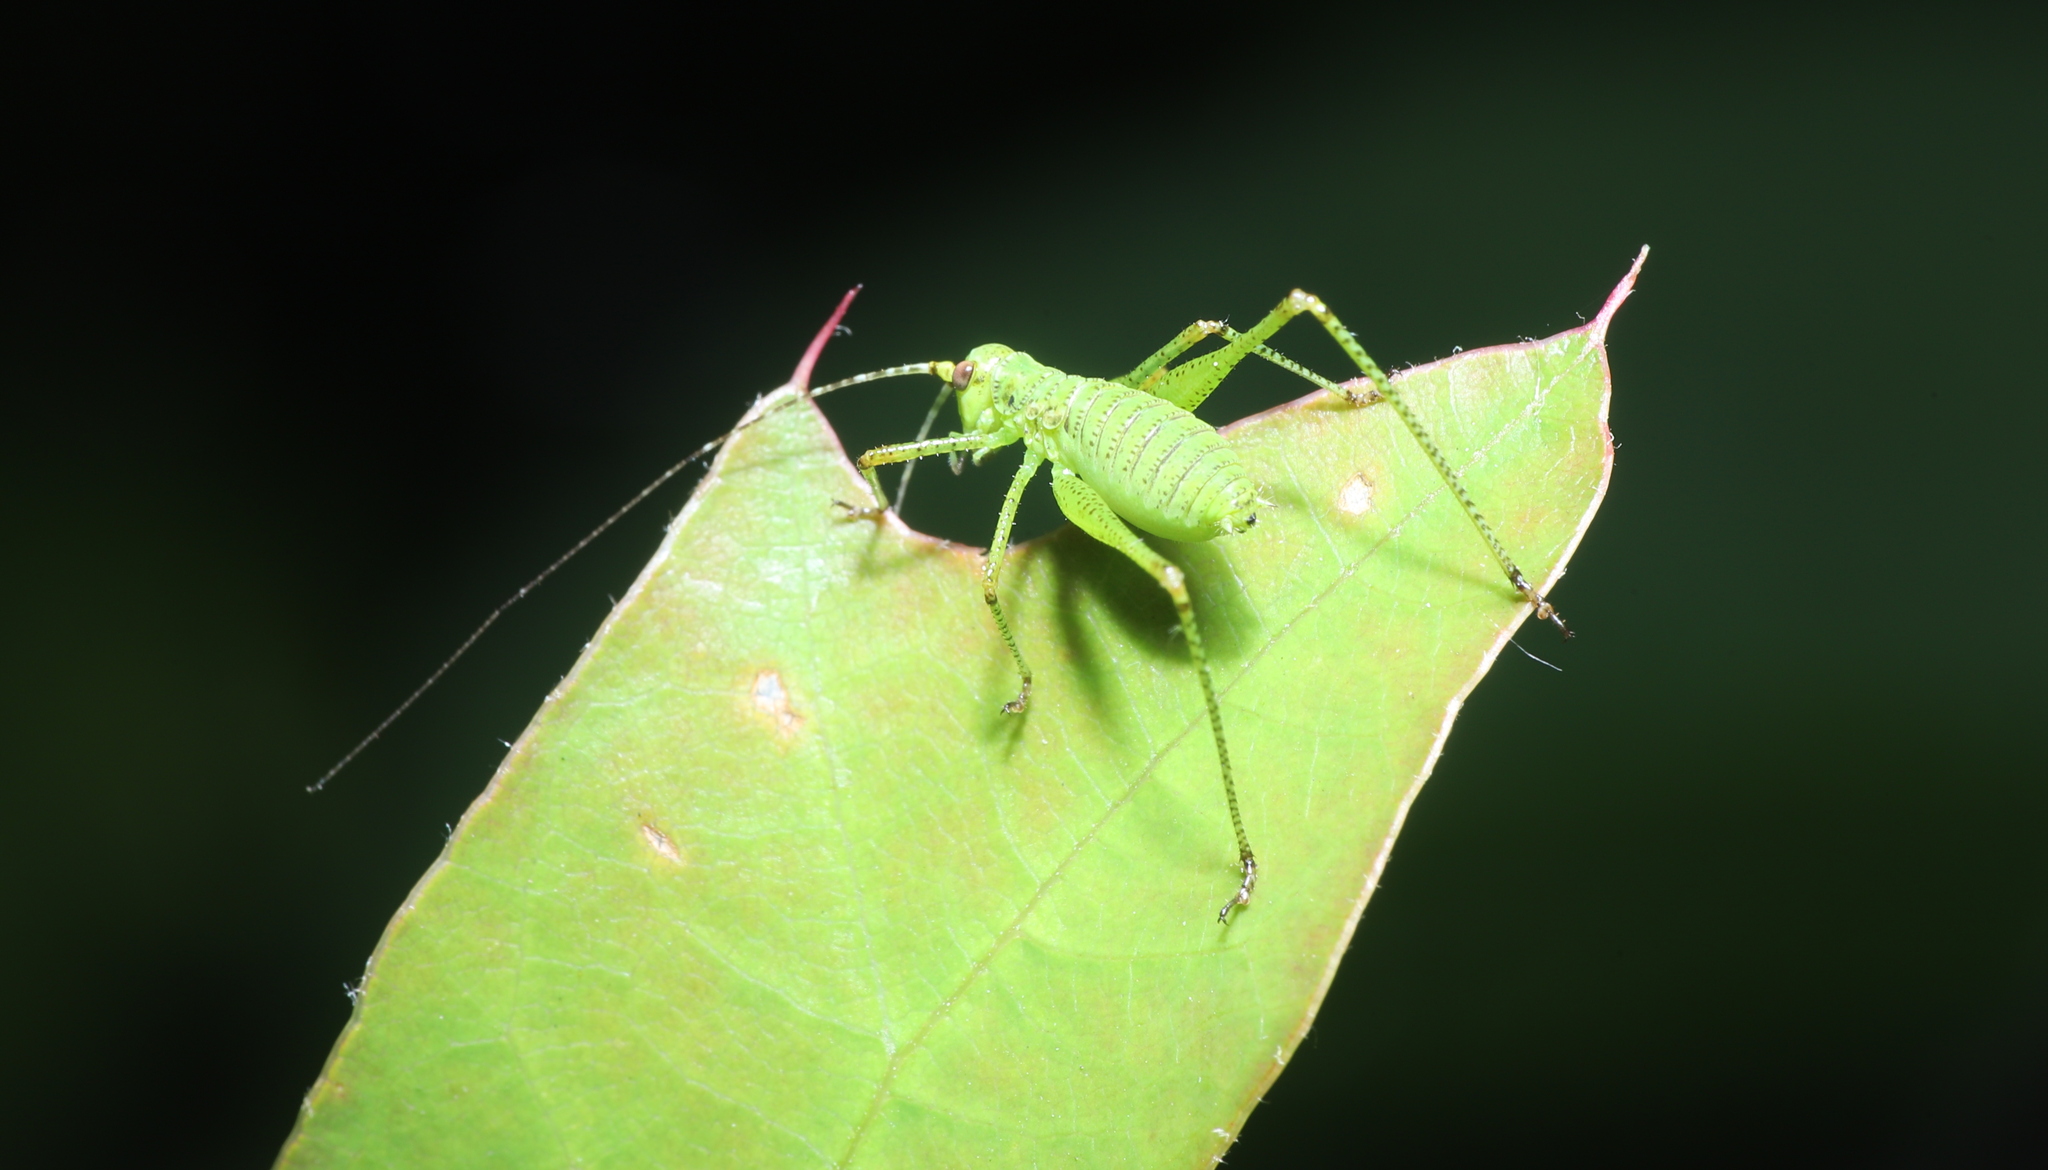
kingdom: Animalia
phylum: Arthropoda
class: Insecta
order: Orthoptera
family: Tettigoniidae
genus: Phaneroptera
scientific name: Phaneroptera nana
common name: Southern sickle bush-cricket
